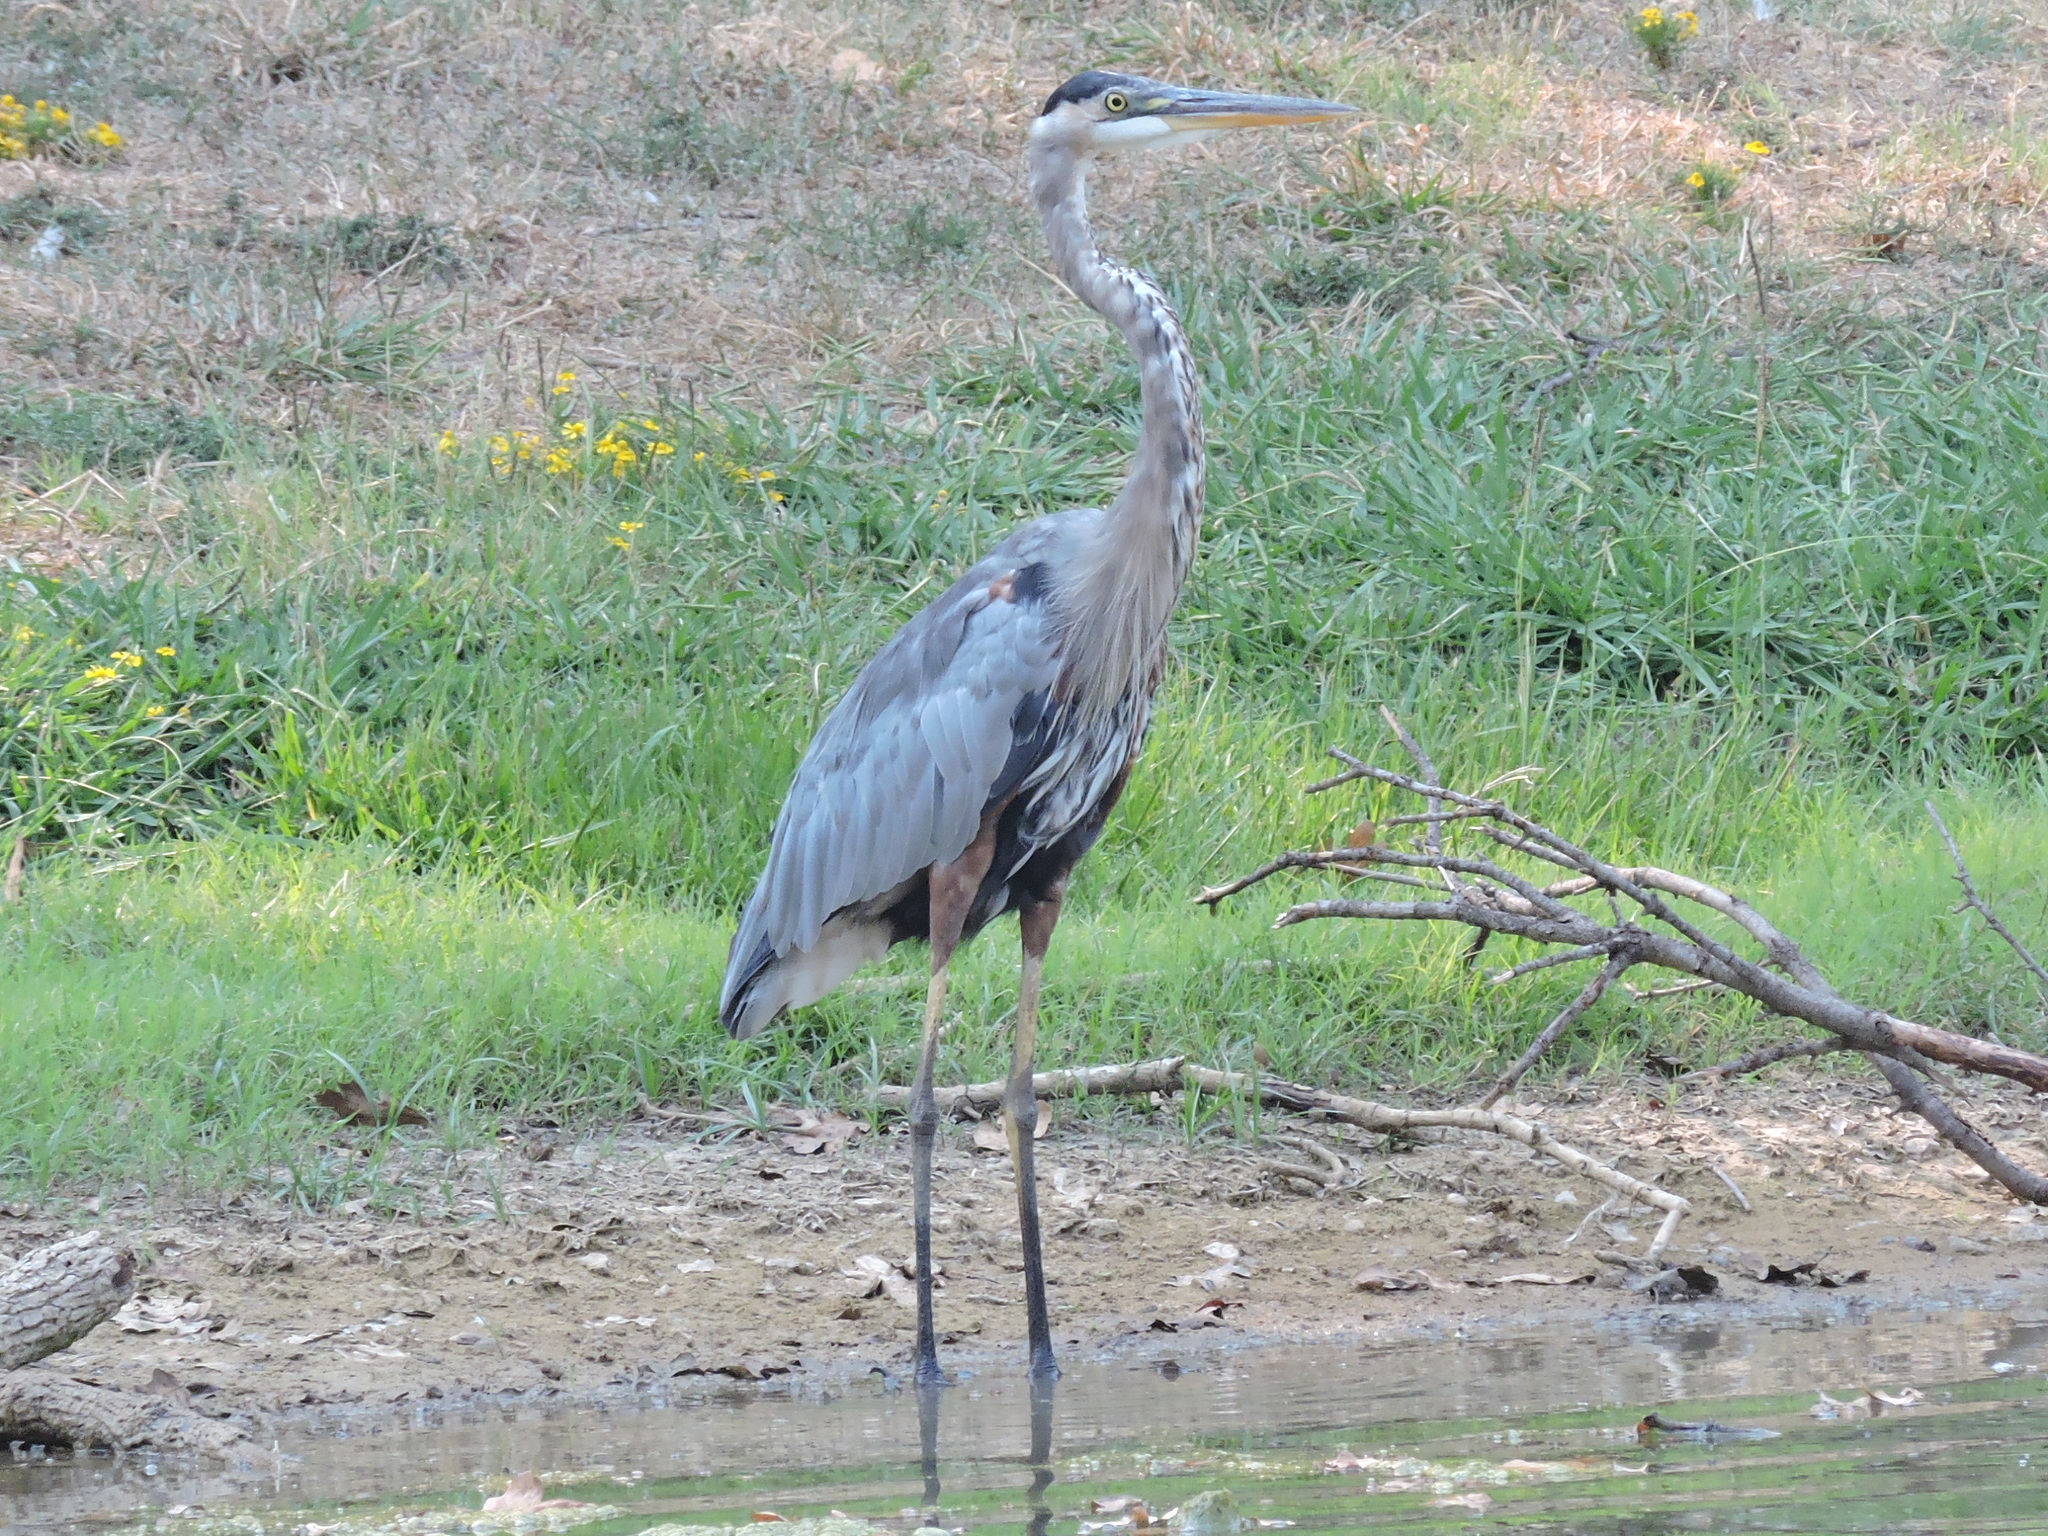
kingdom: Animalia
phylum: Chordata
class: Aves
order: Pelecaniformes
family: Ardeidae
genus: Ardea
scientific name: Ardea herodias
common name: Great blue heron
